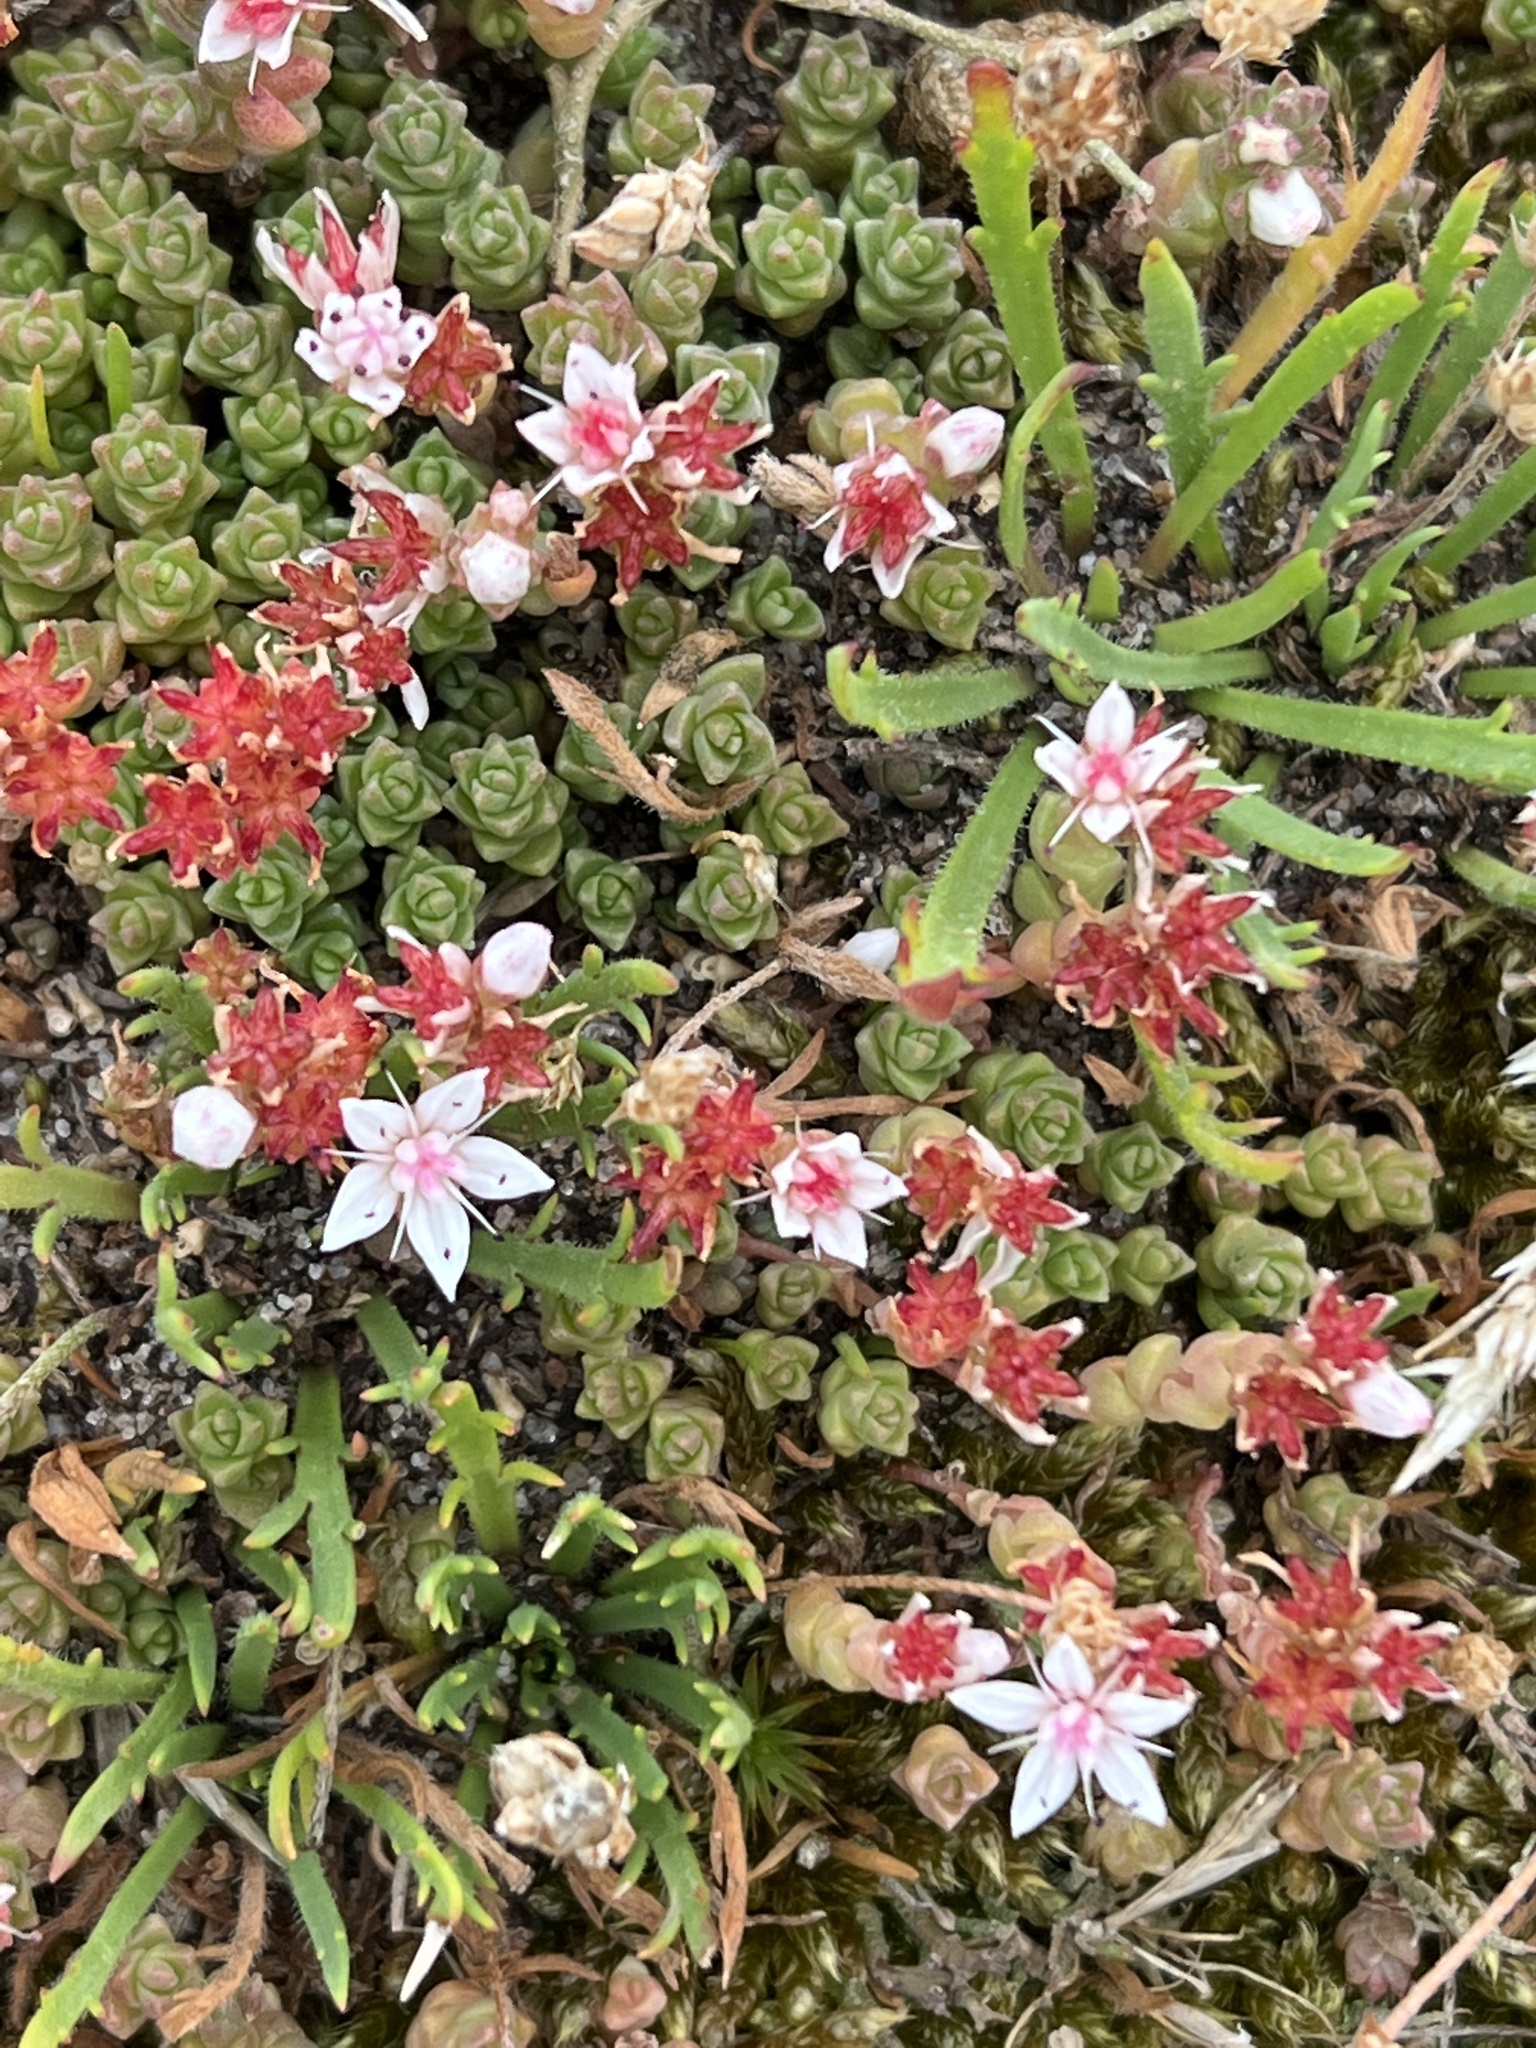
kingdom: Plantae
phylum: Tracheophyta
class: Magnoliopsida
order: Saxifragales
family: Crassulaceae
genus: Sedum
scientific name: Sedum anglicum
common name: English stonecrop
